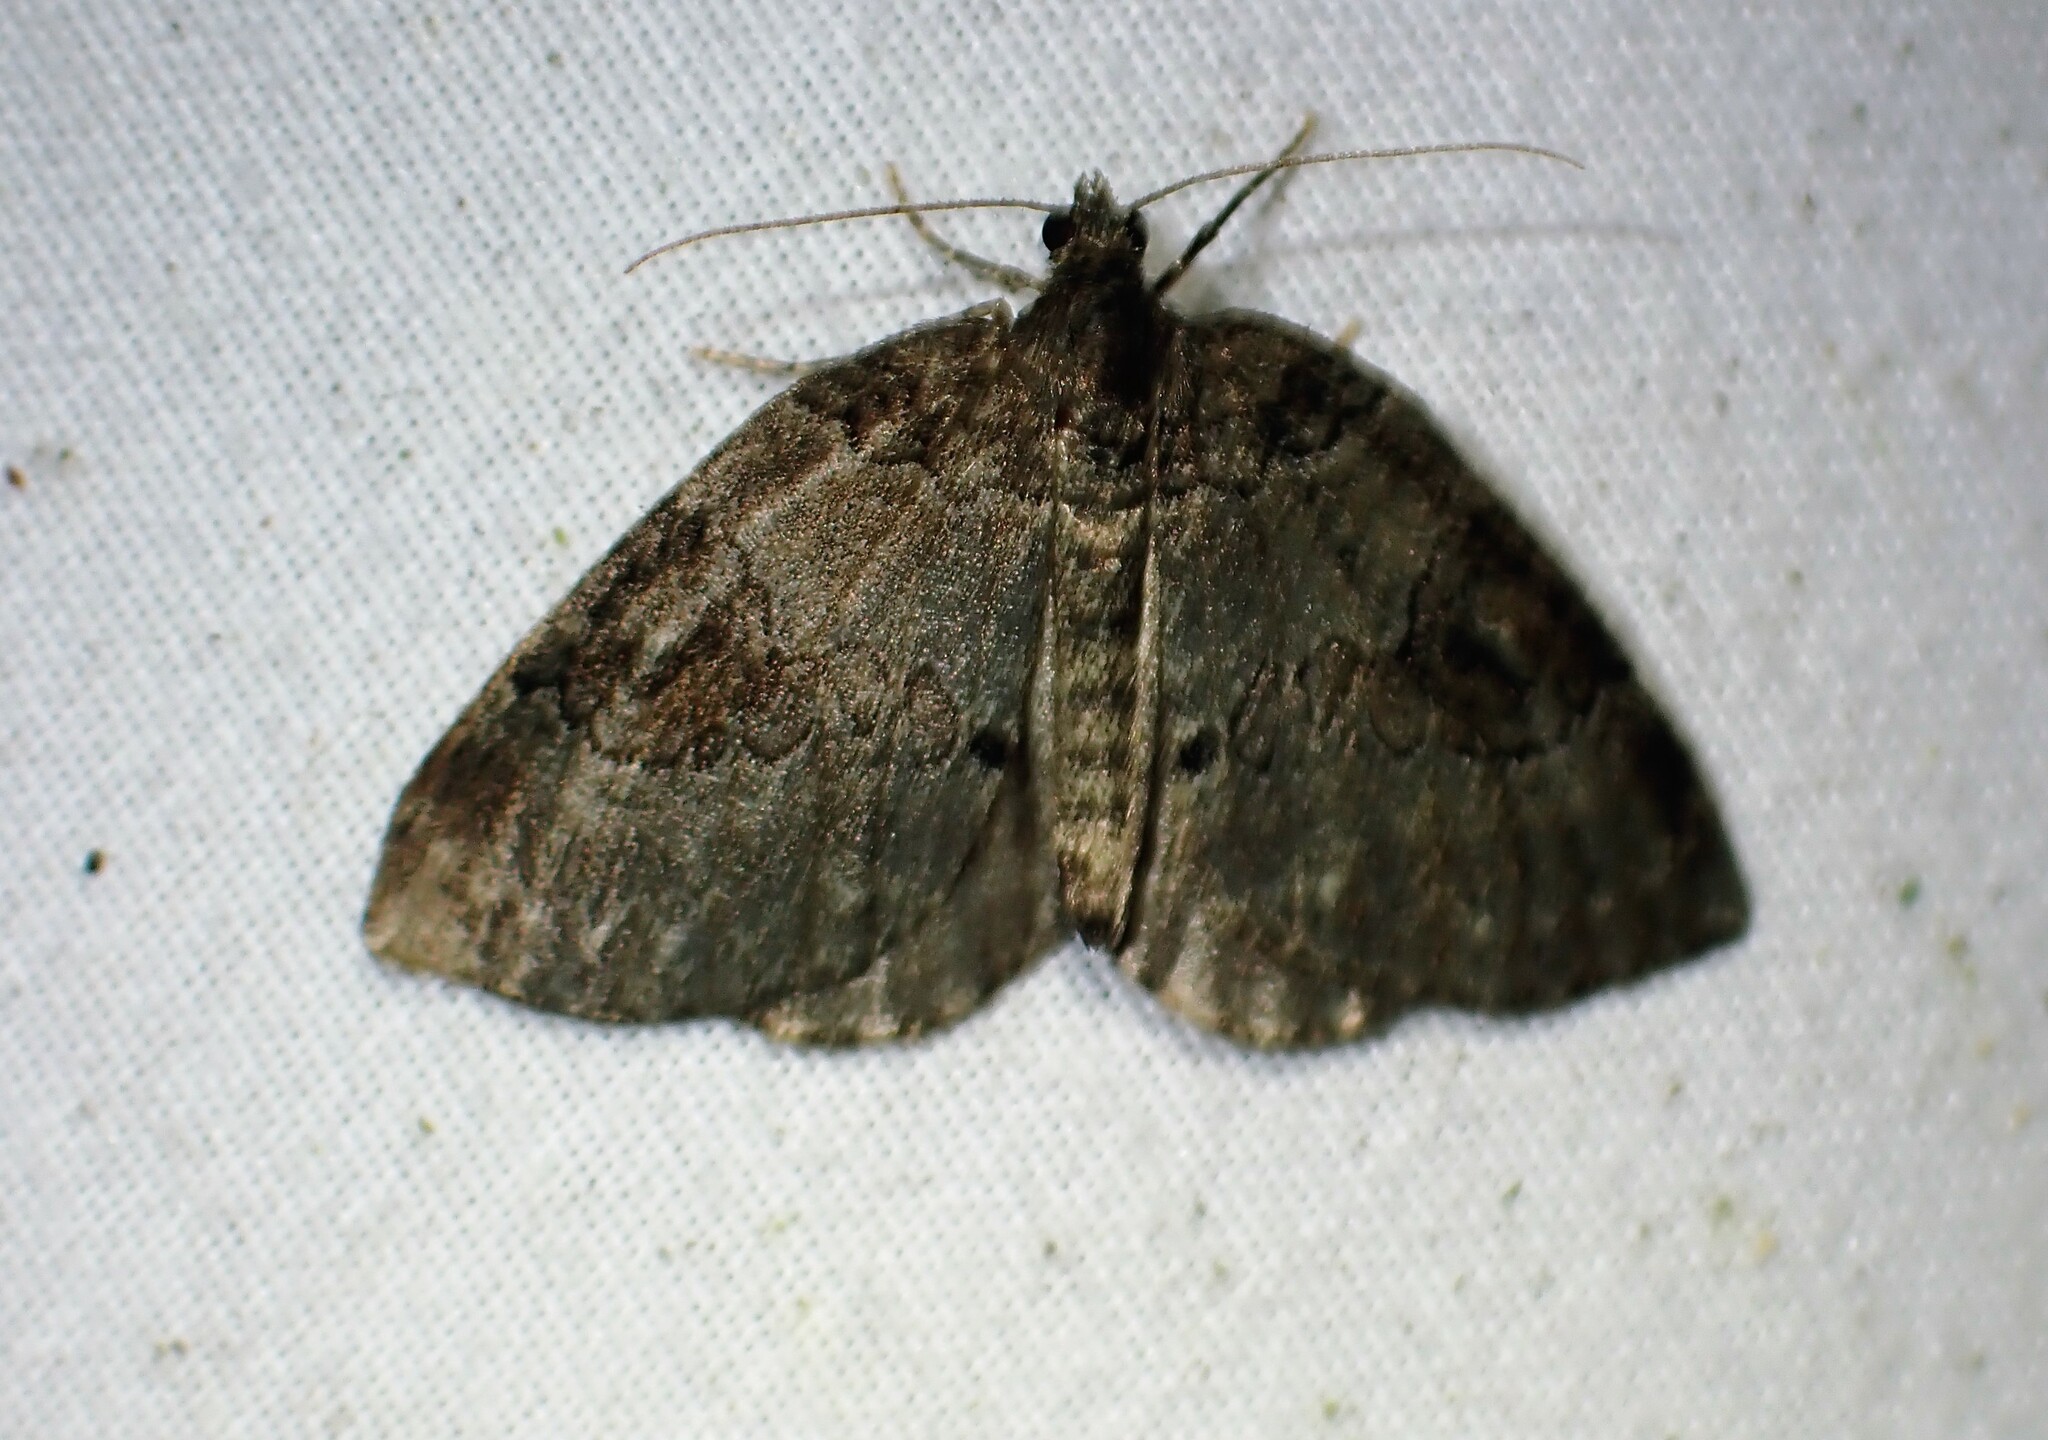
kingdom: Animalia
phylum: Arthropoda
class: Insecta
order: Lepidoptera
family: Geometridae
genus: Plemyria
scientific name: Plemyria georgii
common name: George's carpet moth
